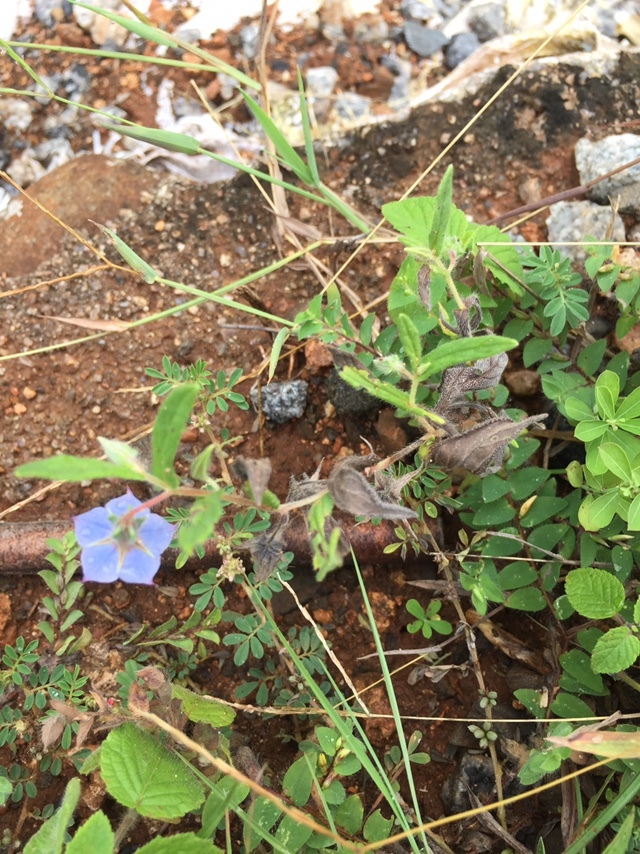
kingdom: Plantae
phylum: Tracheophyta
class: Magnoliopsida
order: Boraginales
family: Boraginaceae
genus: Trichodesma
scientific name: Trichodesma indicum
